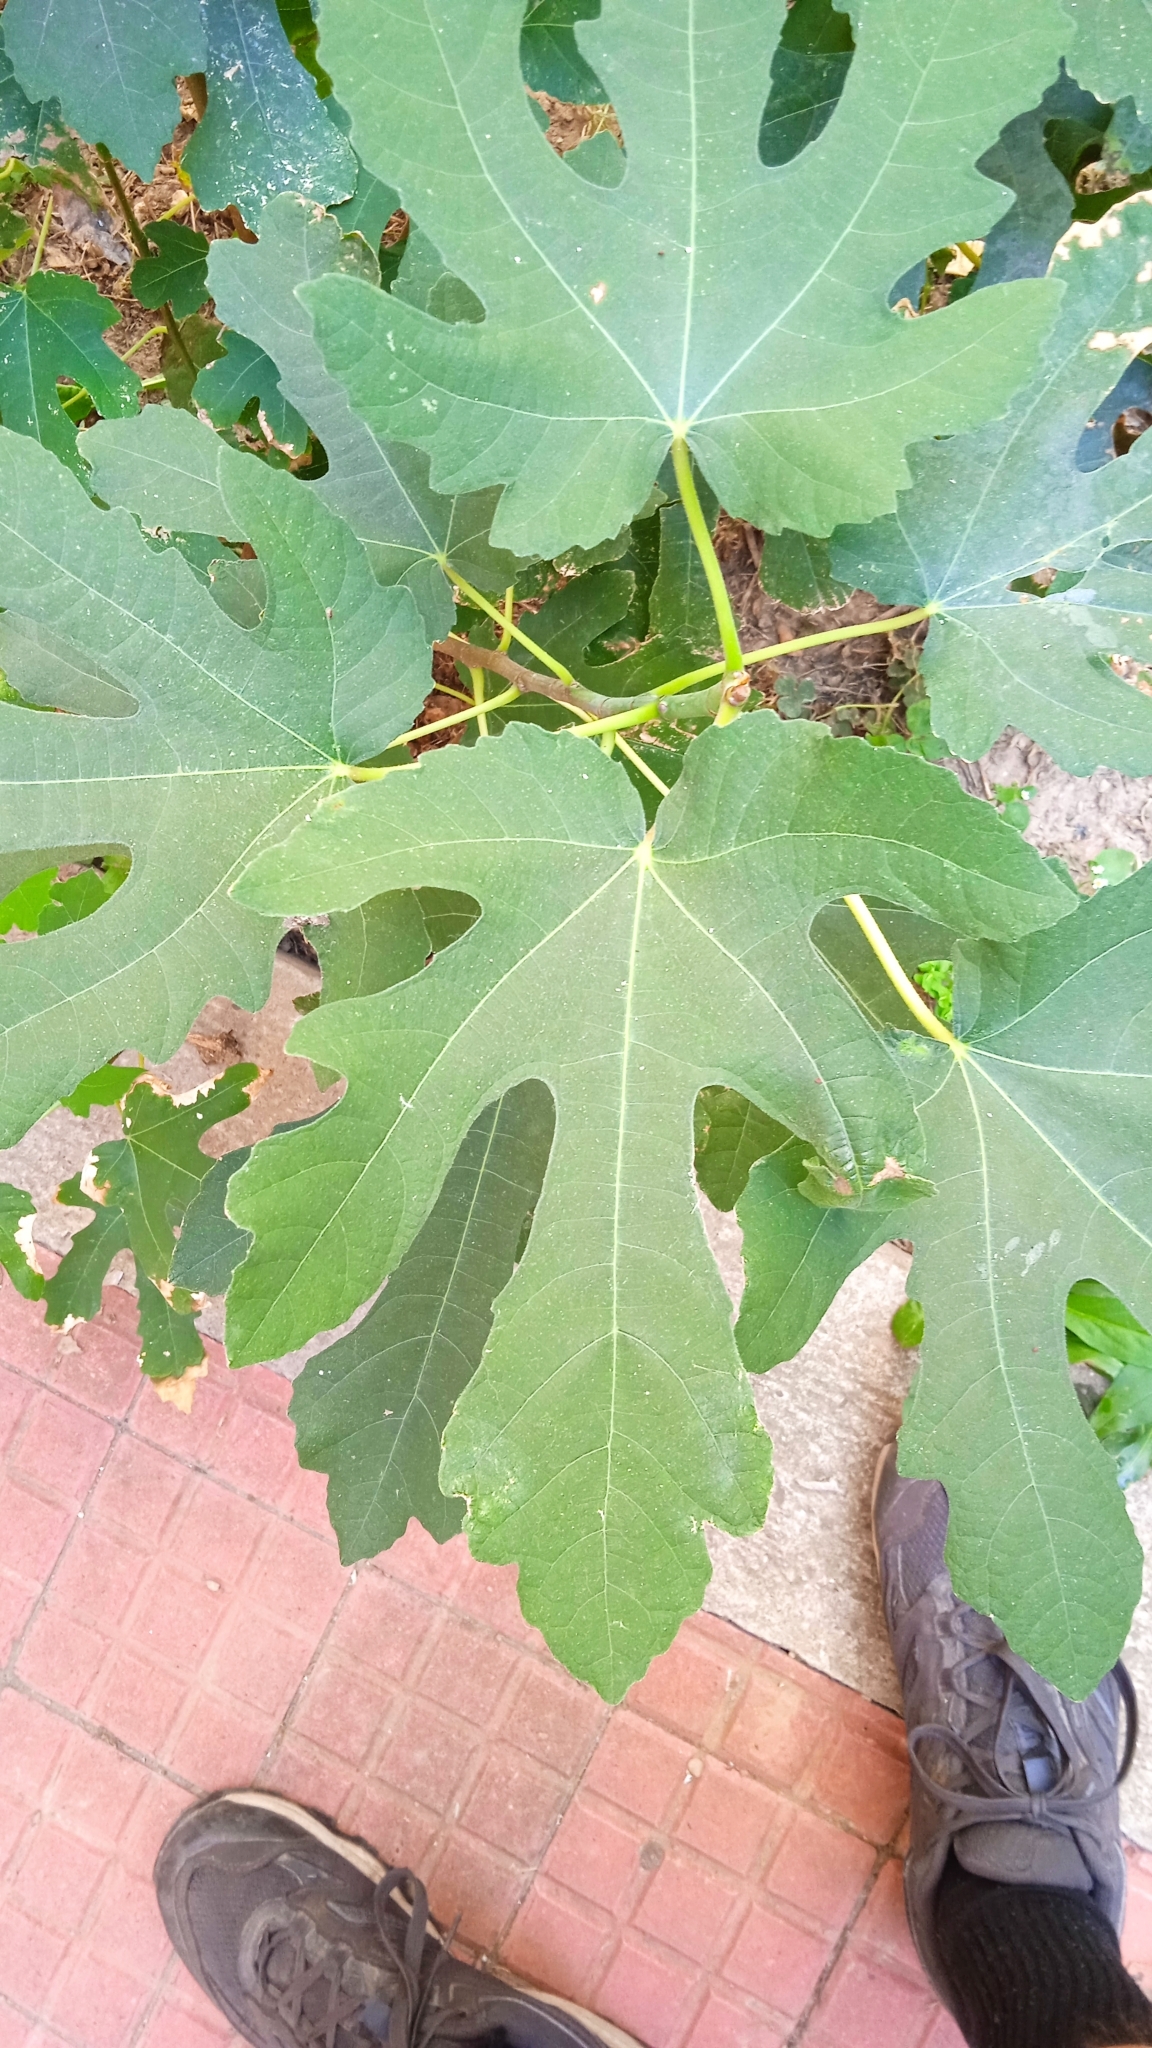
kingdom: Plantae
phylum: Tracheophyta
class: Magnoliopsida
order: Rosales
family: Moraceae
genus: Ficus
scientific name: Ficus carica
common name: Fig
